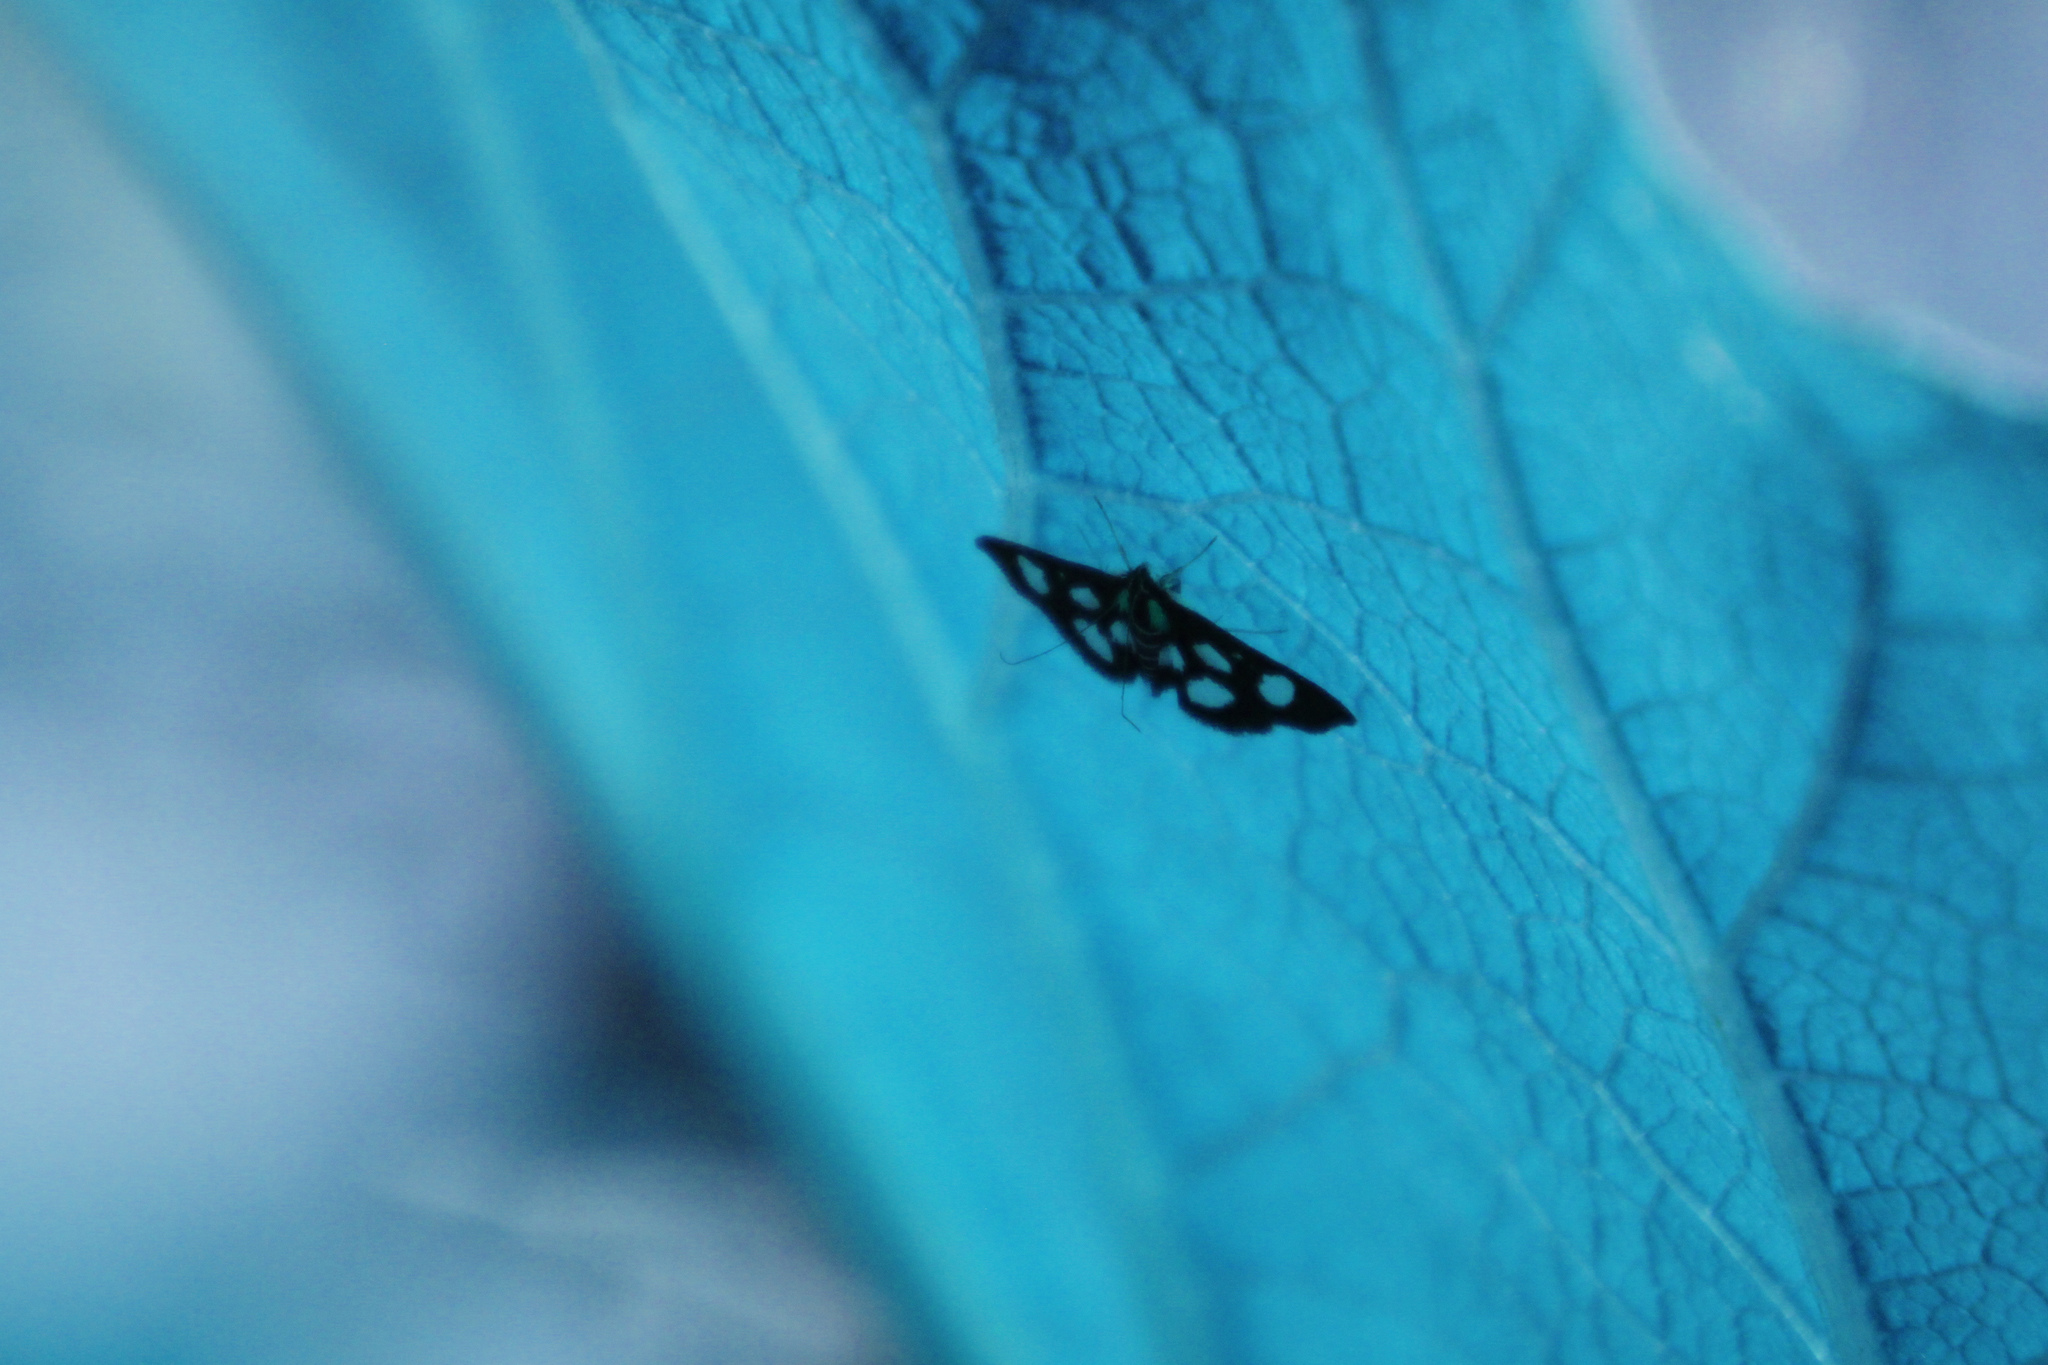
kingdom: Animalia
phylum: Arthropoda
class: Insecta
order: Lepidoptera
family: Crambidae
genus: Anania
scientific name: Anania funebris
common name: White-spotted sable moth
